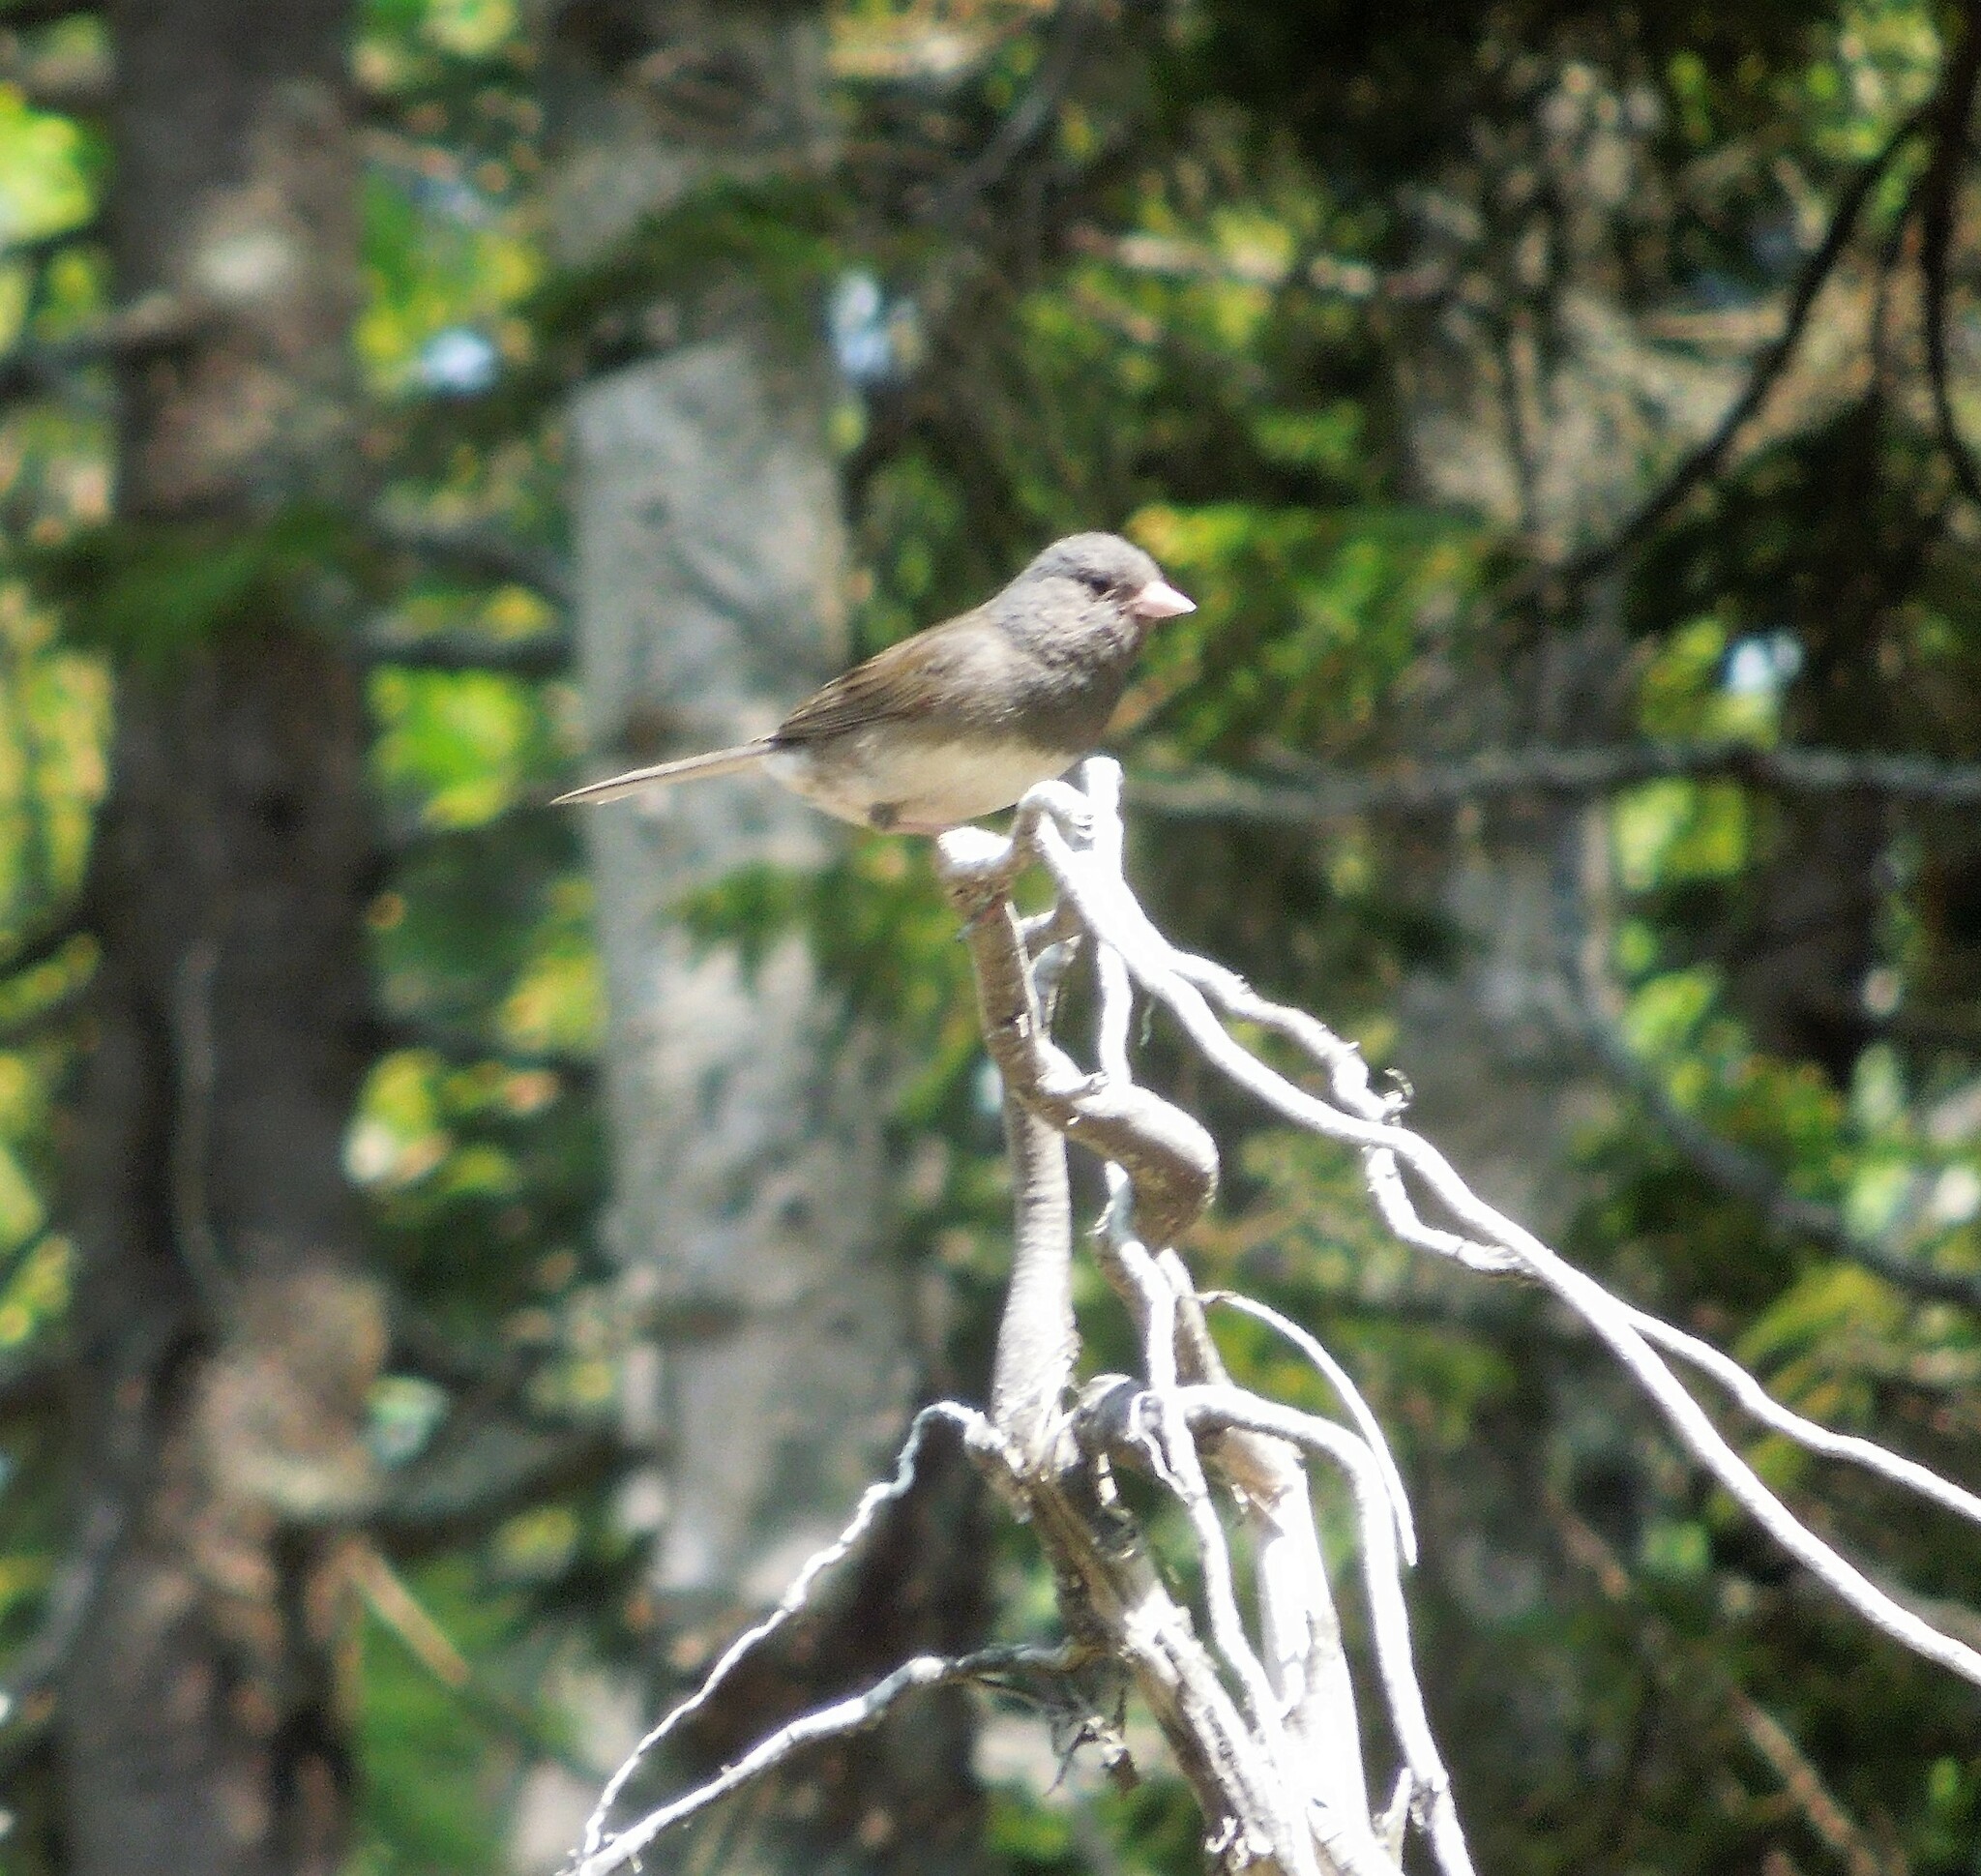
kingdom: Animalia
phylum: Chordata
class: Aves
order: Passeriformes
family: Passerellidae
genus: Junco
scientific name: Junco hyemalis
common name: Dark-eyed junco
